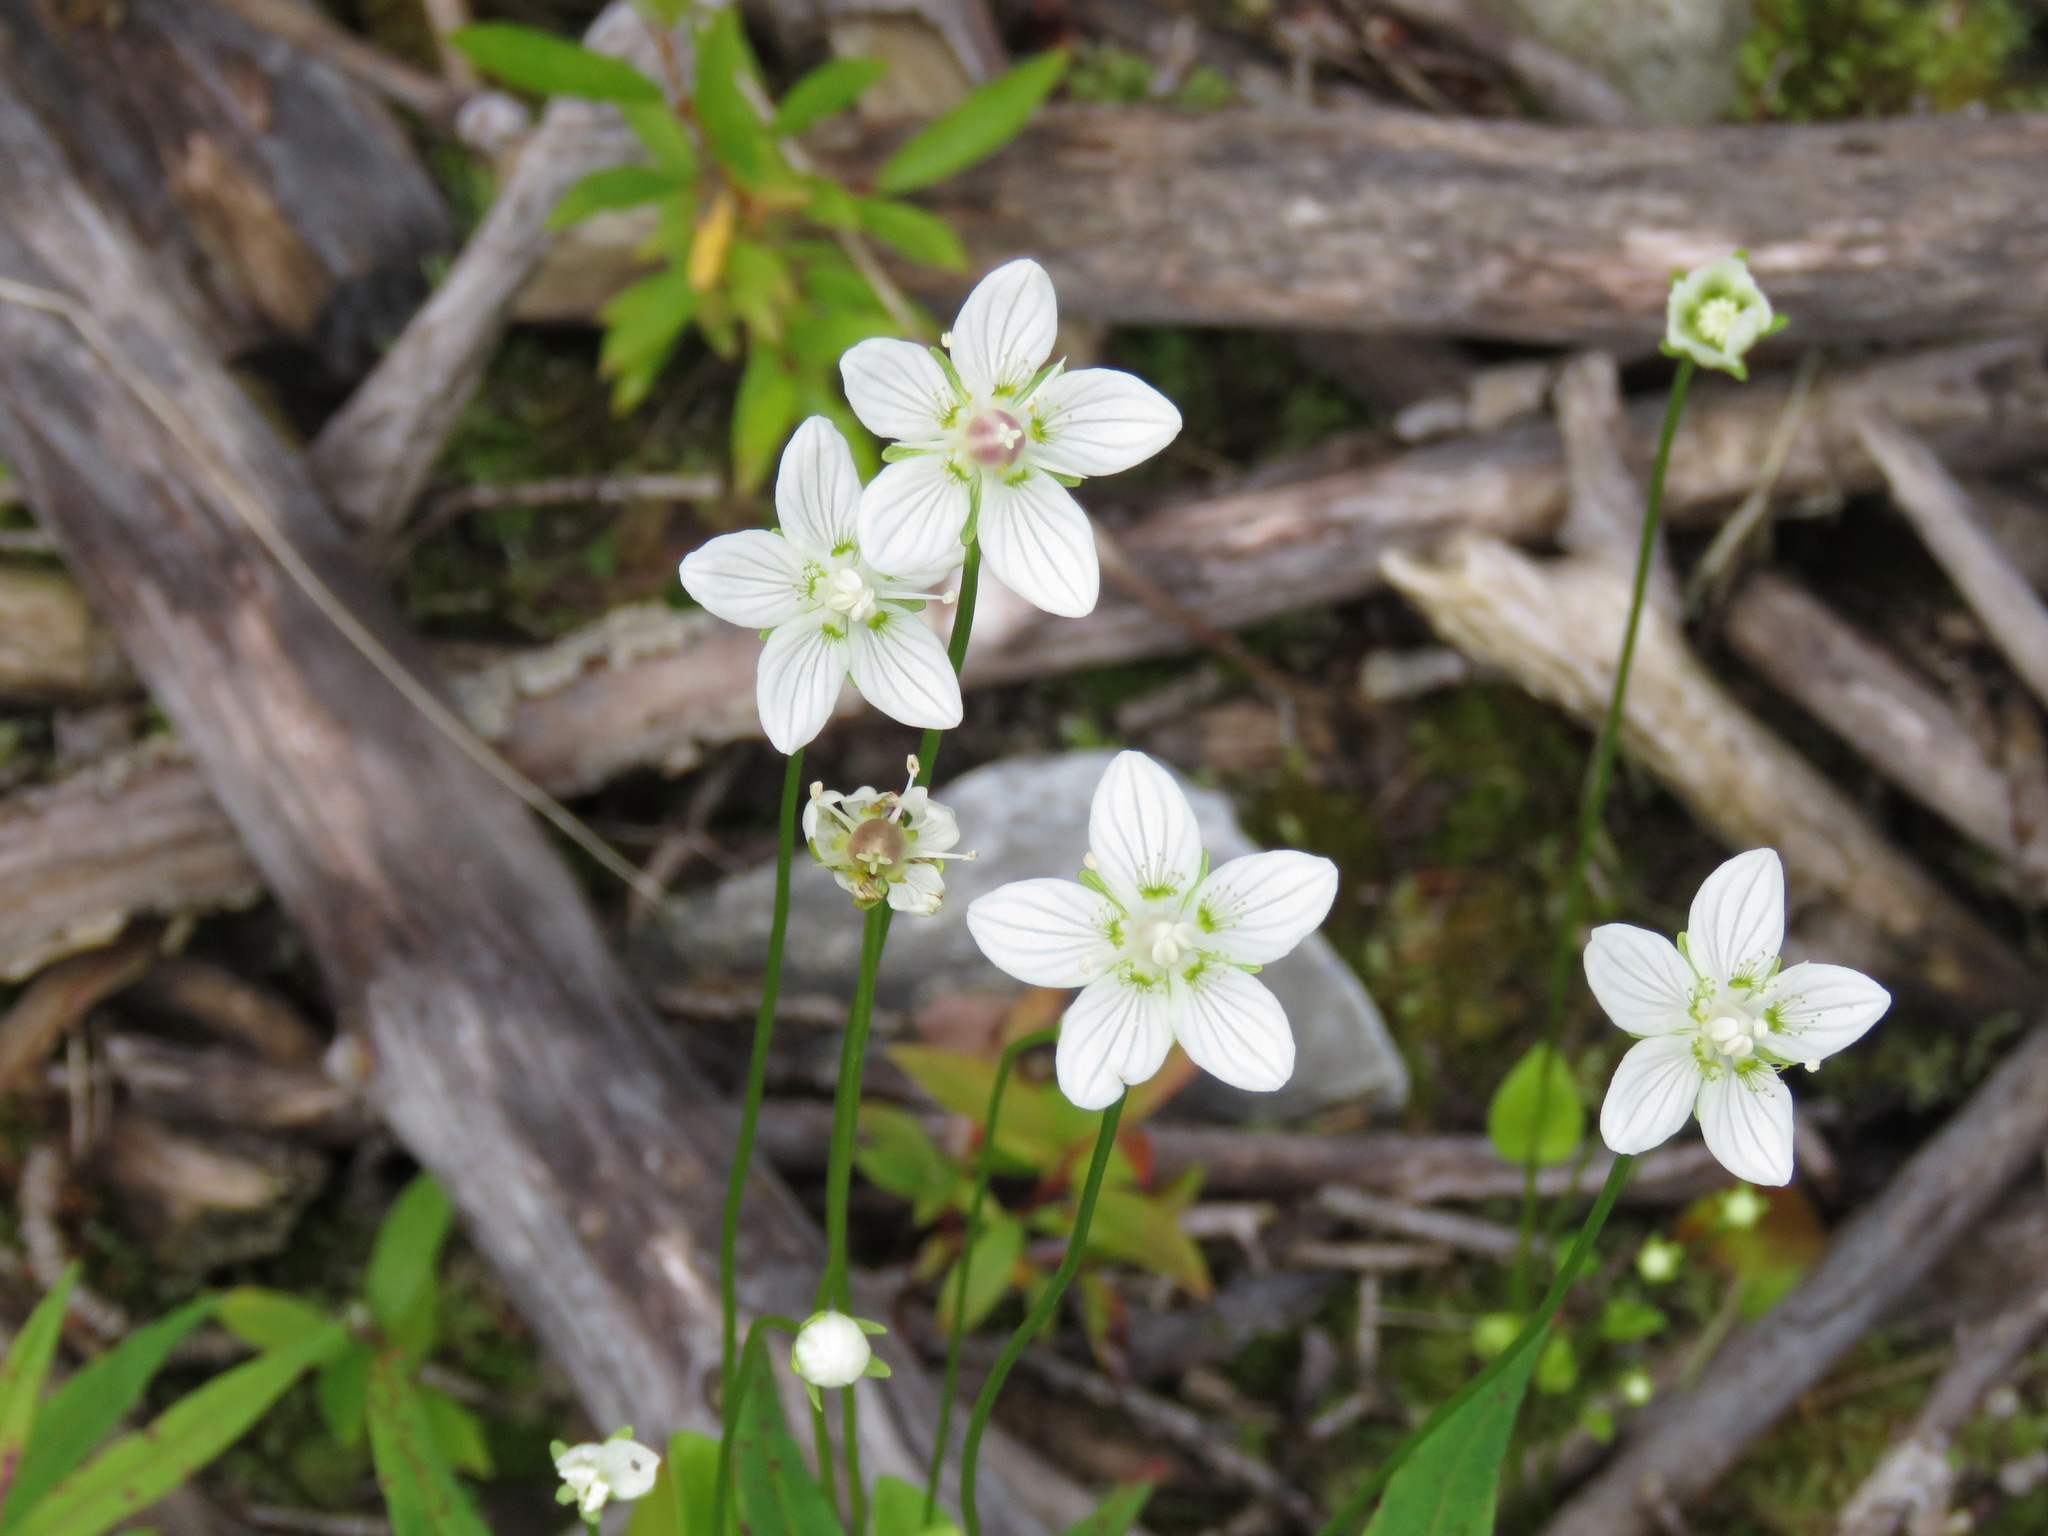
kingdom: Plantae
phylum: Tracheophyta
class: Magnoliopsida
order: Celastrales
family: Parnassiaceae
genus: Parnassia
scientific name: Parnassia palustris
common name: Grass-of-parnassus
